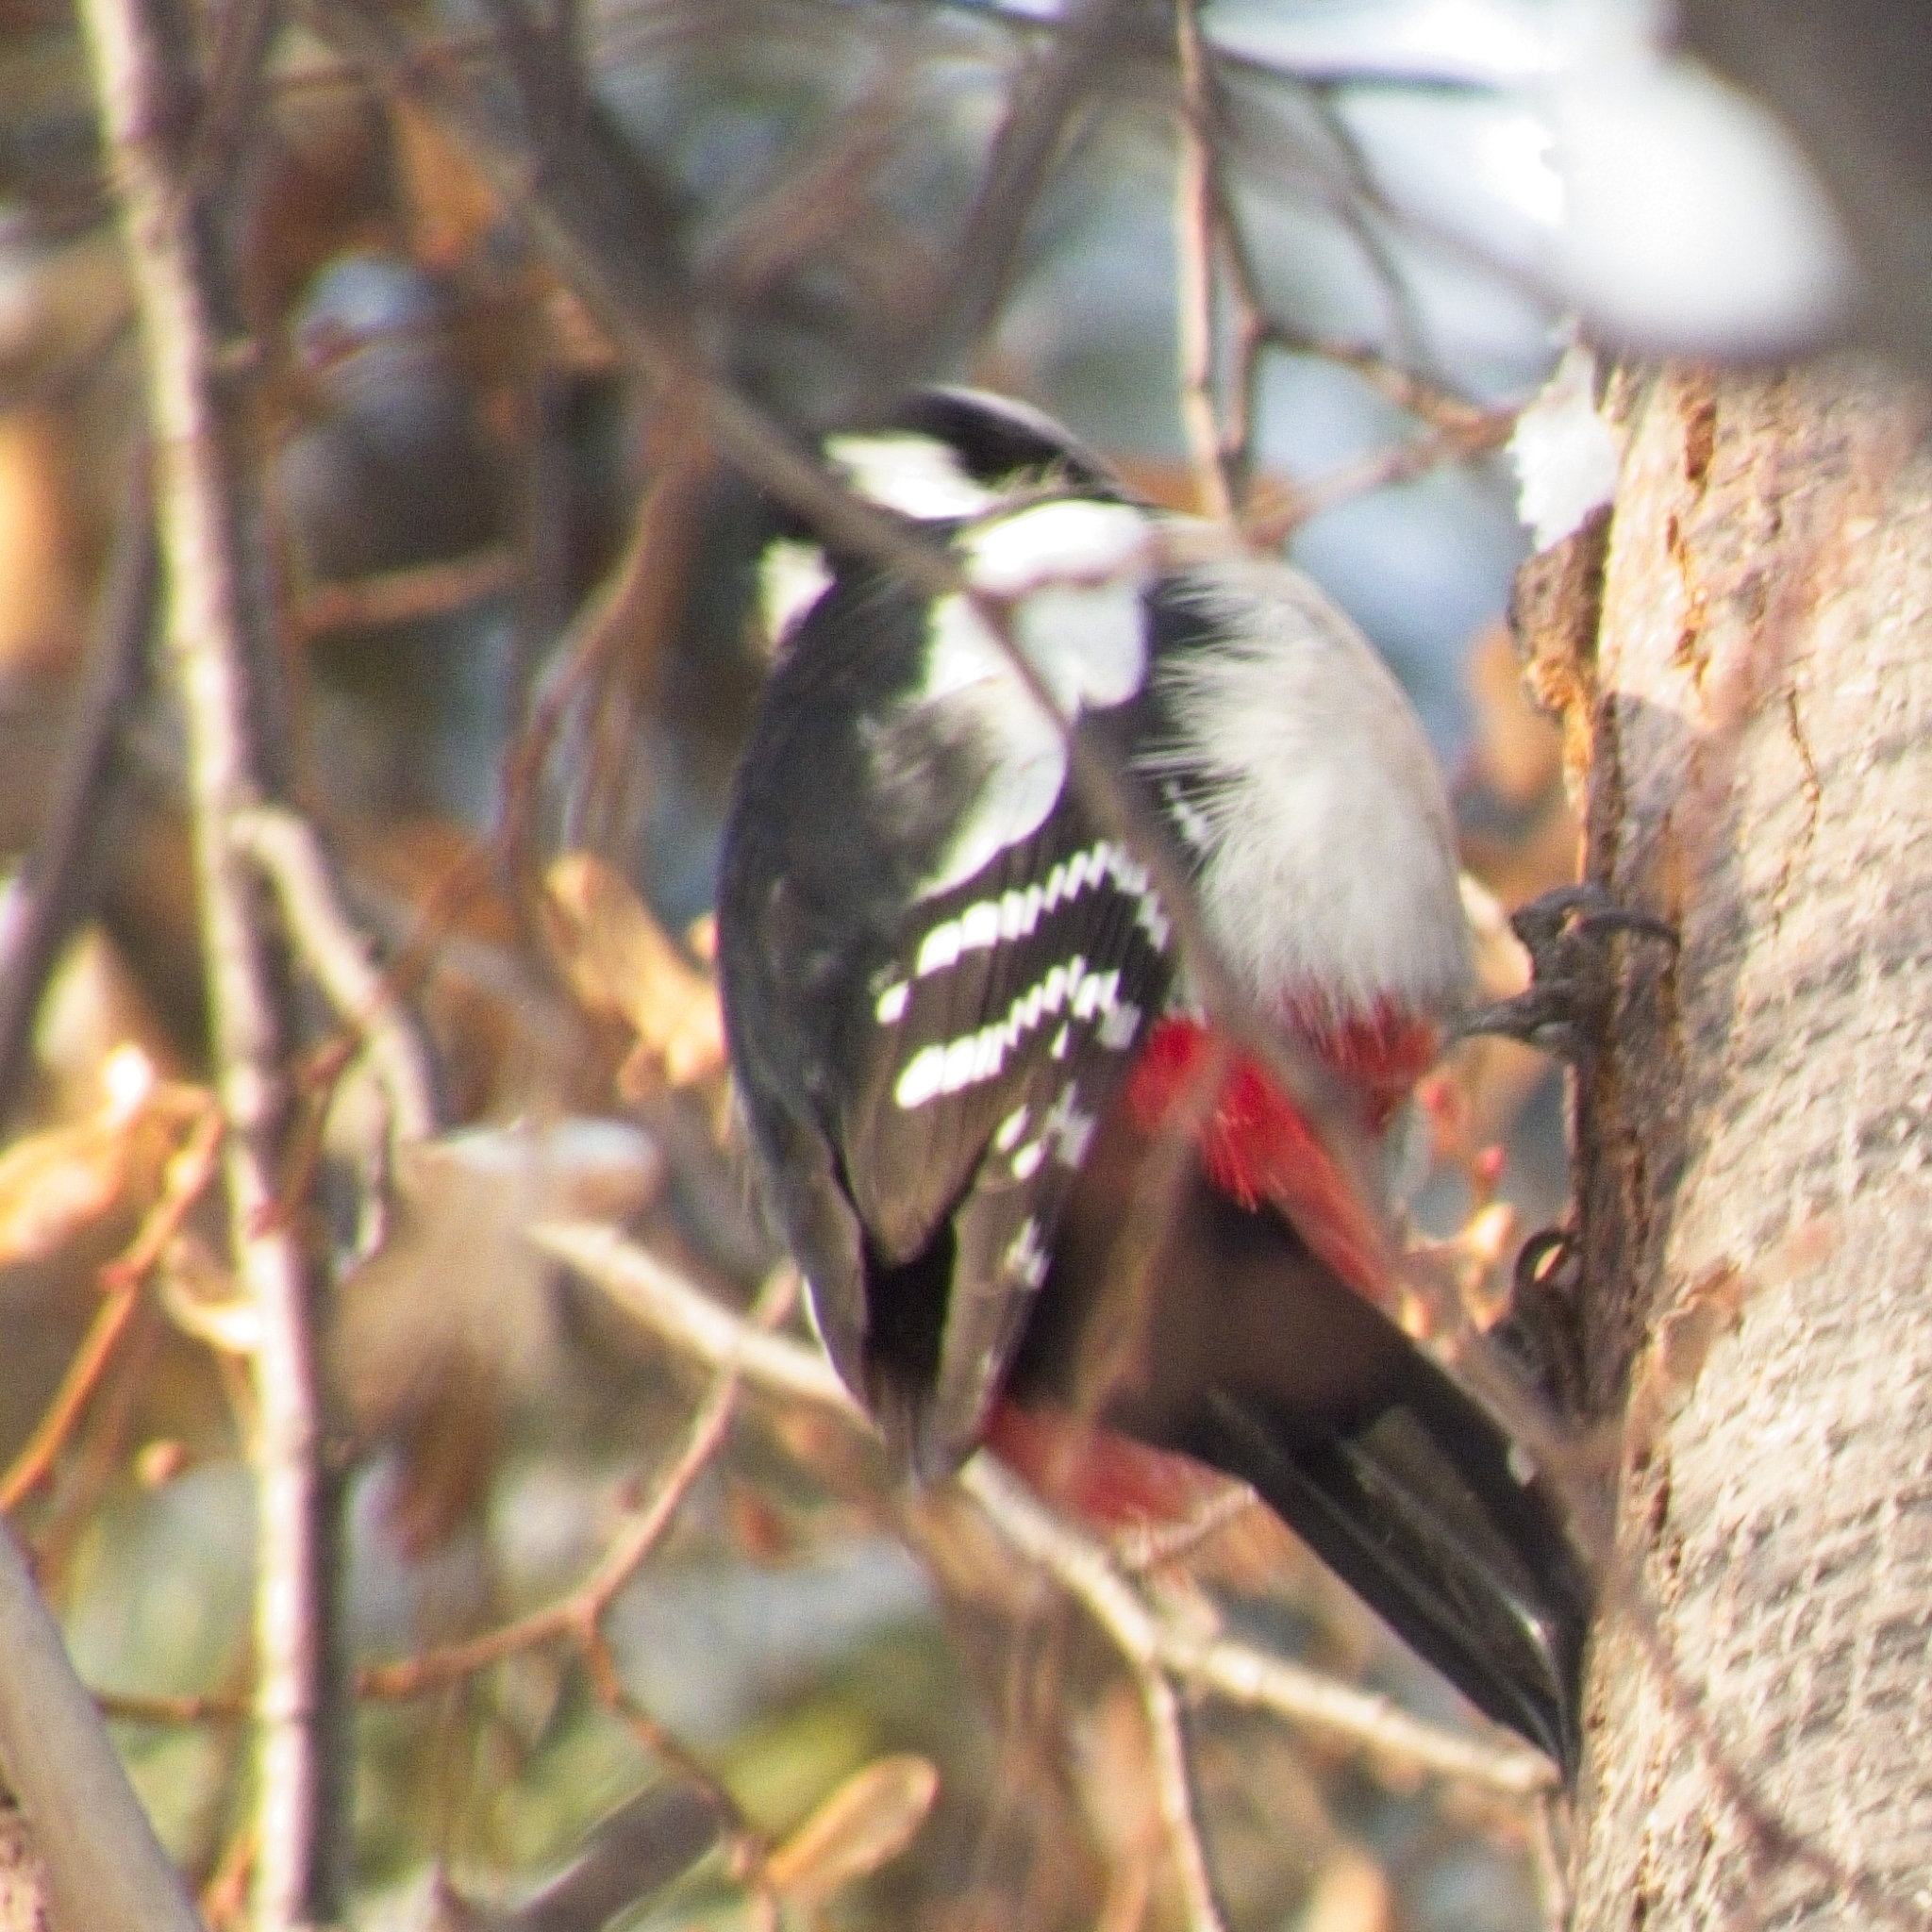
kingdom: Animalia
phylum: Chordata
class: Aves
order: Piciformes
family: Picidae
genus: Dendrocopos
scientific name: Dendrocopos major
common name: Great spotted woodpecker
